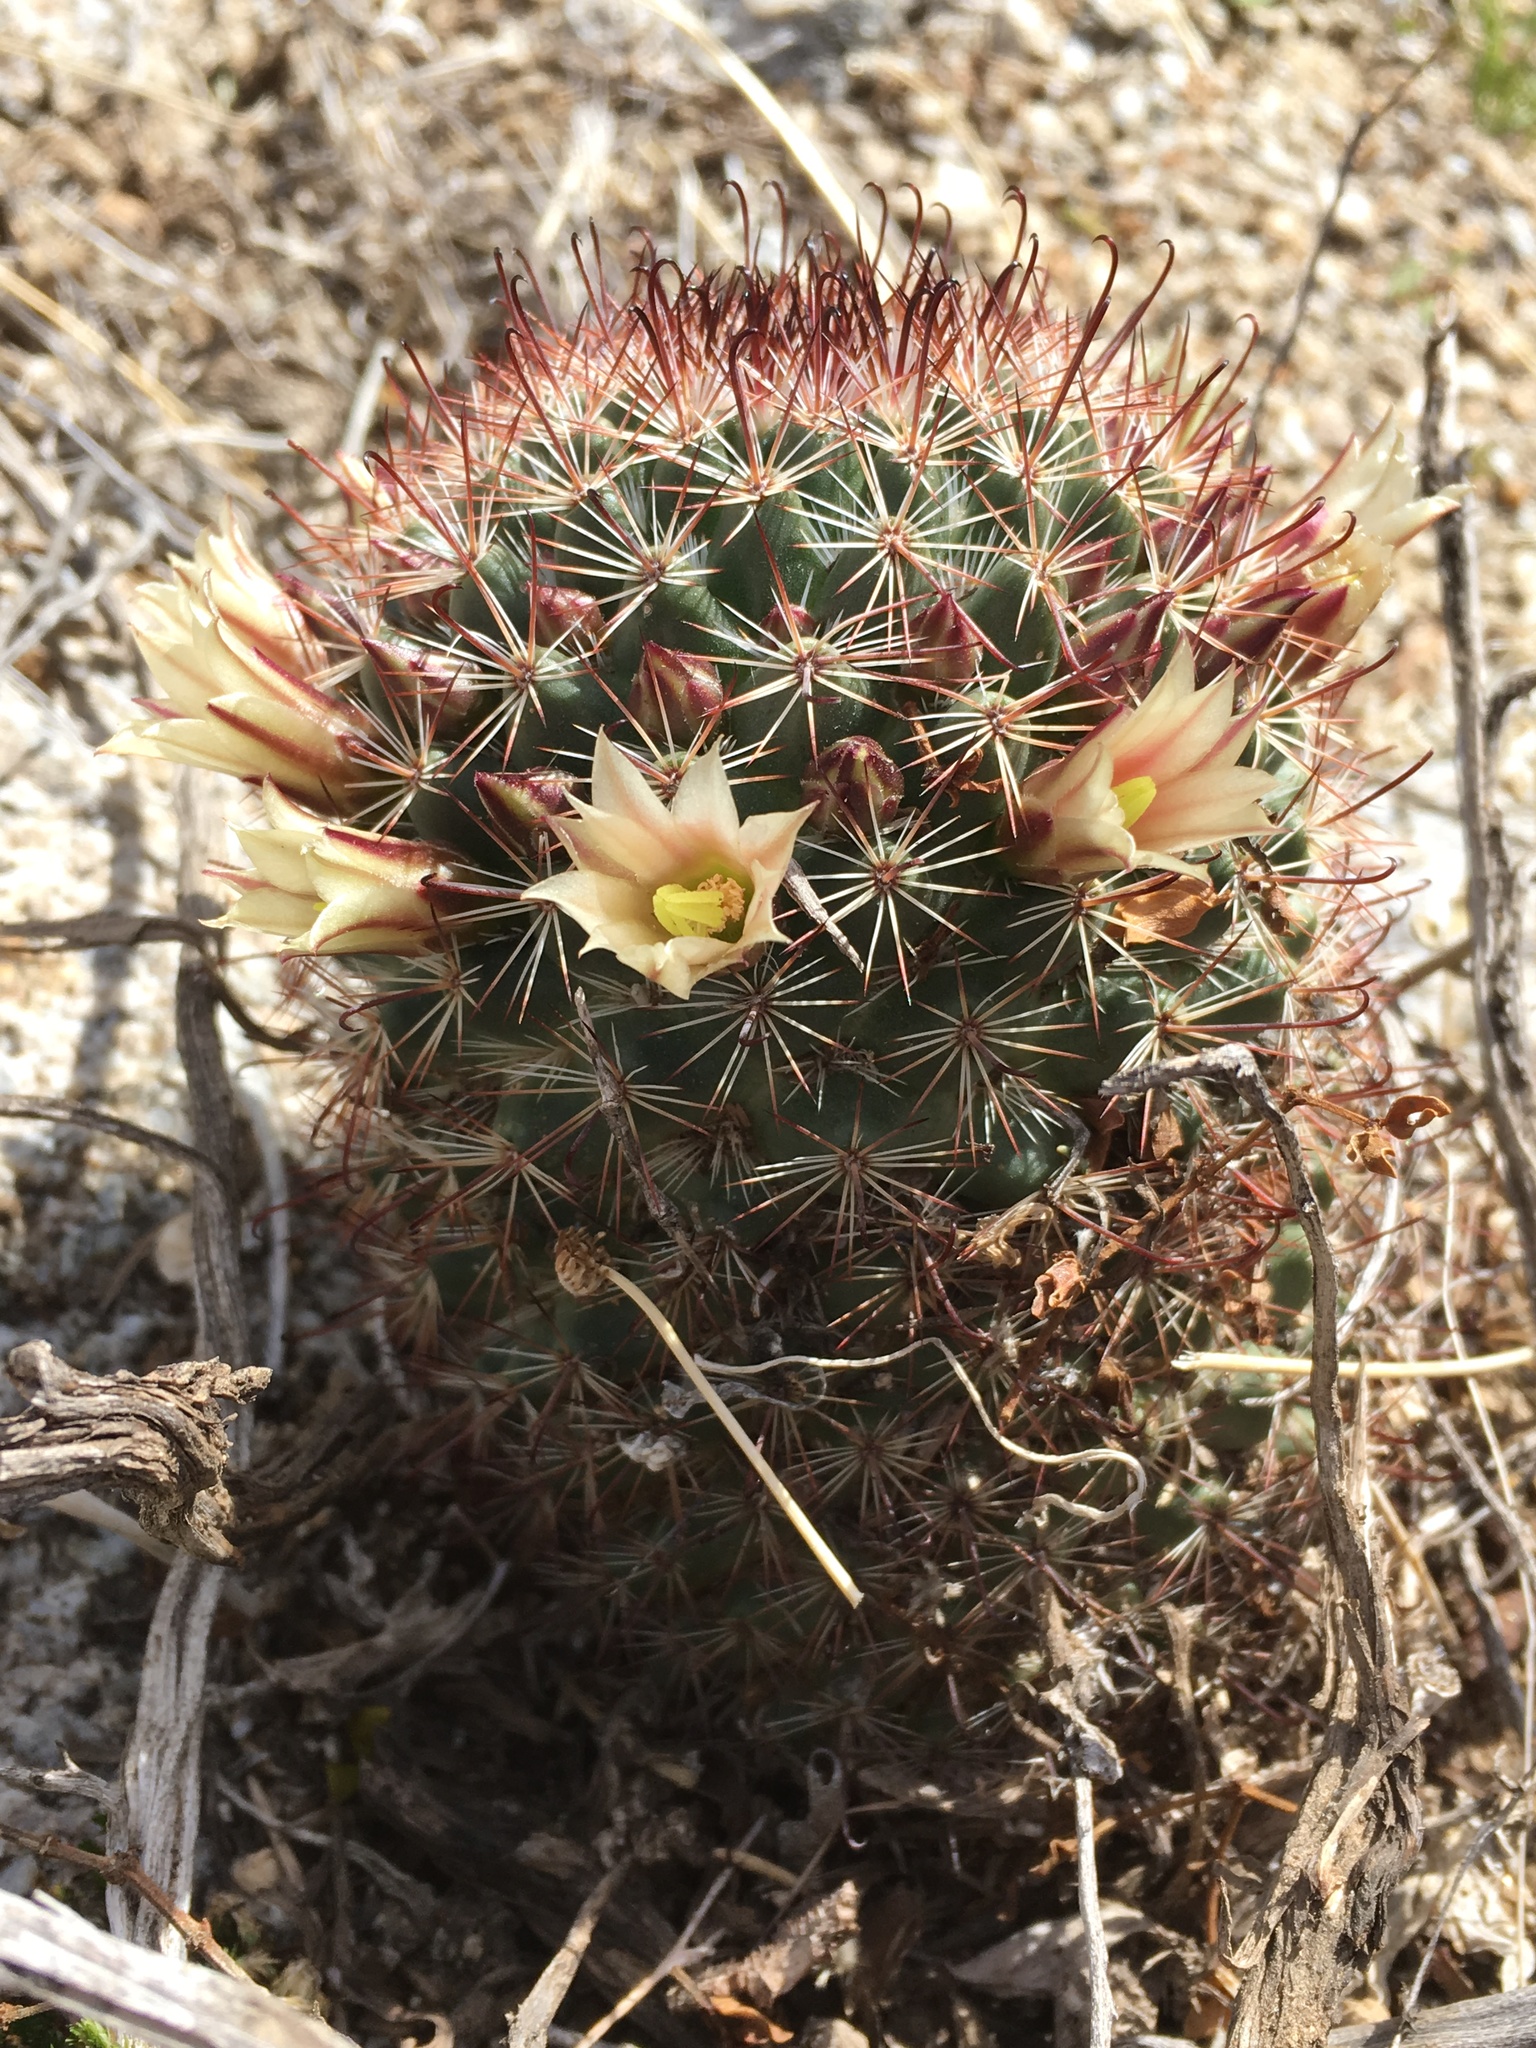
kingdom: Plantae
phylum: Tracheophyta
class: Magnoliopsida
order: Caryophyllales
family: Cactaceae
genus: Cochemiea
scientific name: Cochemiea dioica
